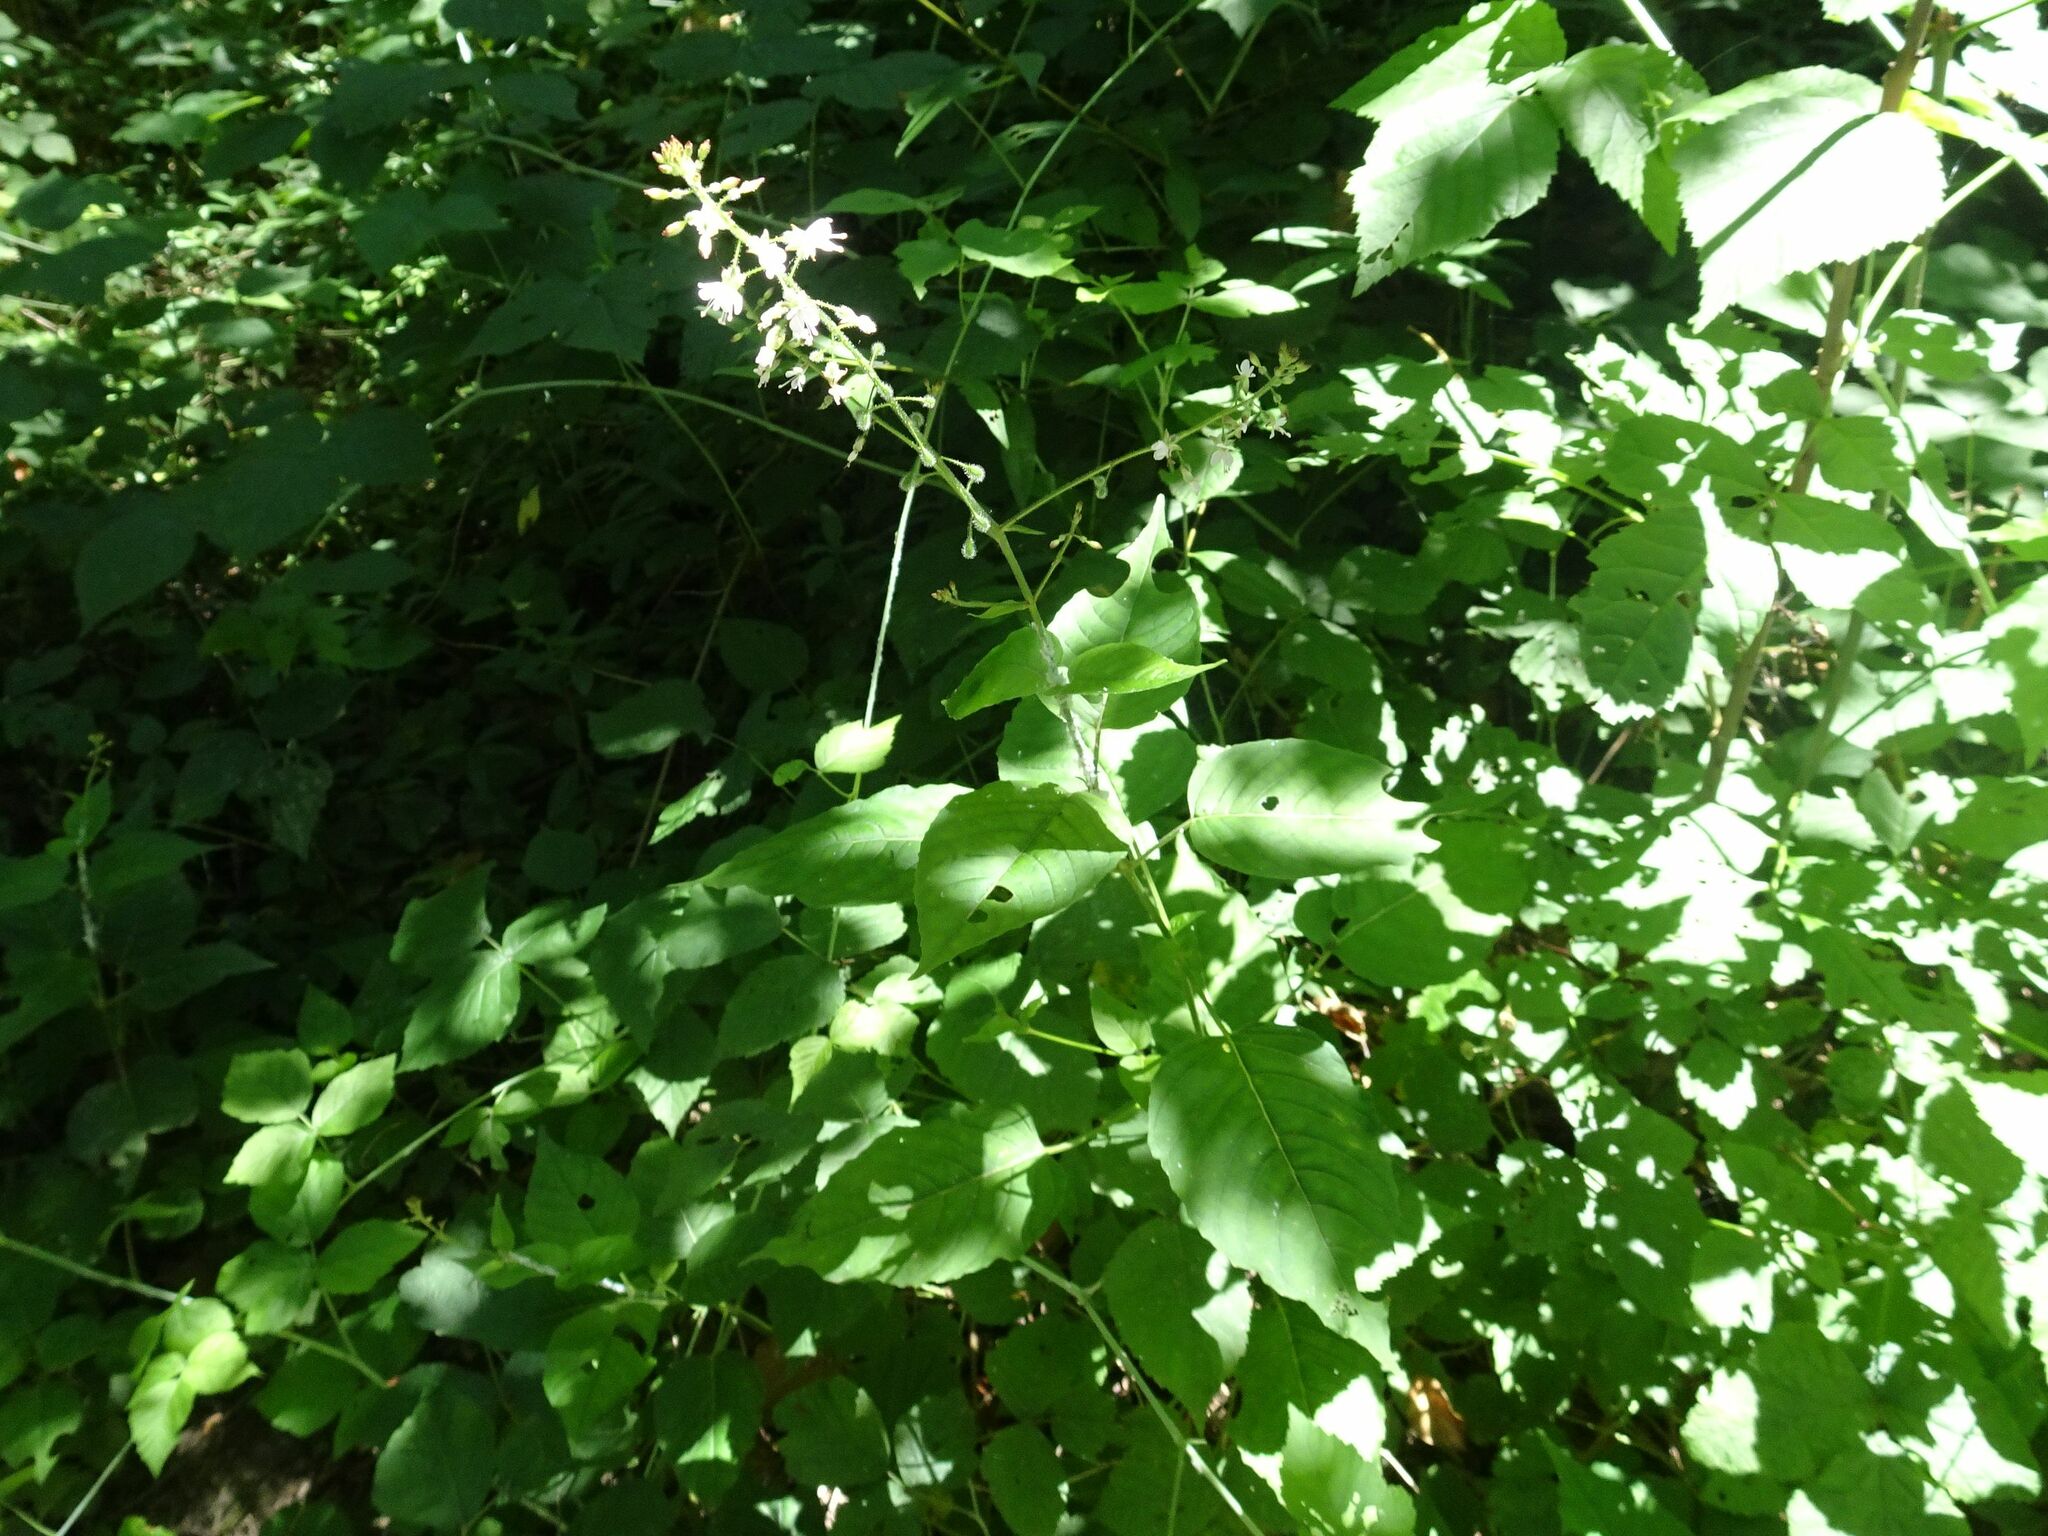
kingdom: Plantae
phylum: Tracheophyta
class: Magnoliopsida
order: Myrtales
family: Onagraceae
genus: Circaea
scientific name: Circaea lutetiana
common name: Enchanter's-nightshade
